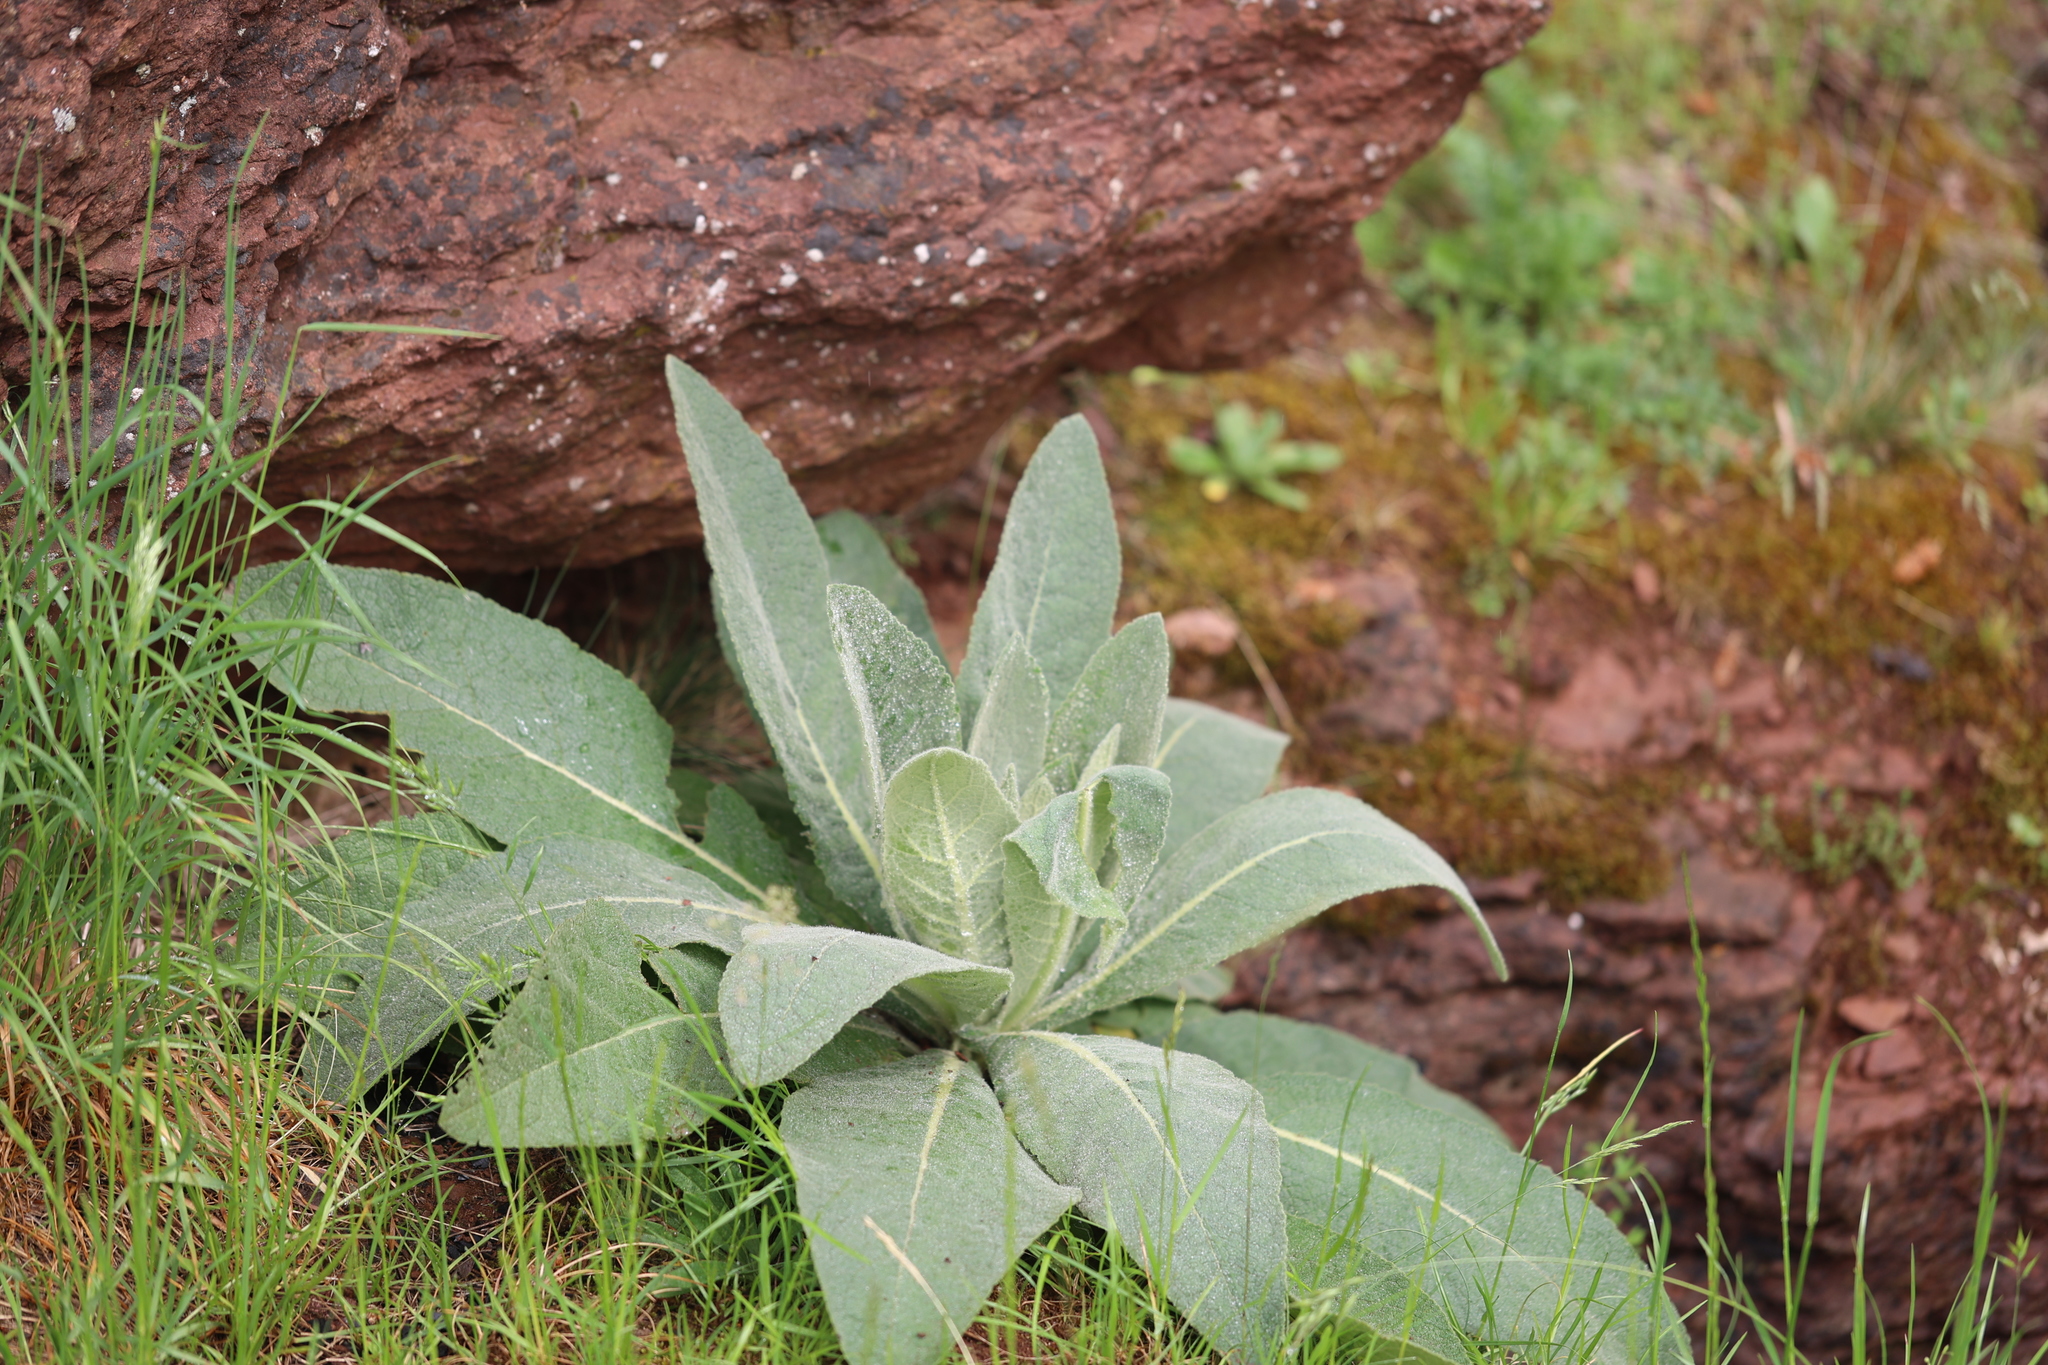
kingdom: Plantae
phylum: Tracheophyta
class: Magnoliopsida
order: Lamiales
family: Scrophulariaceae
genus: Verbascum
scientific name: Verbascum thapsus
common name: Common mullein
